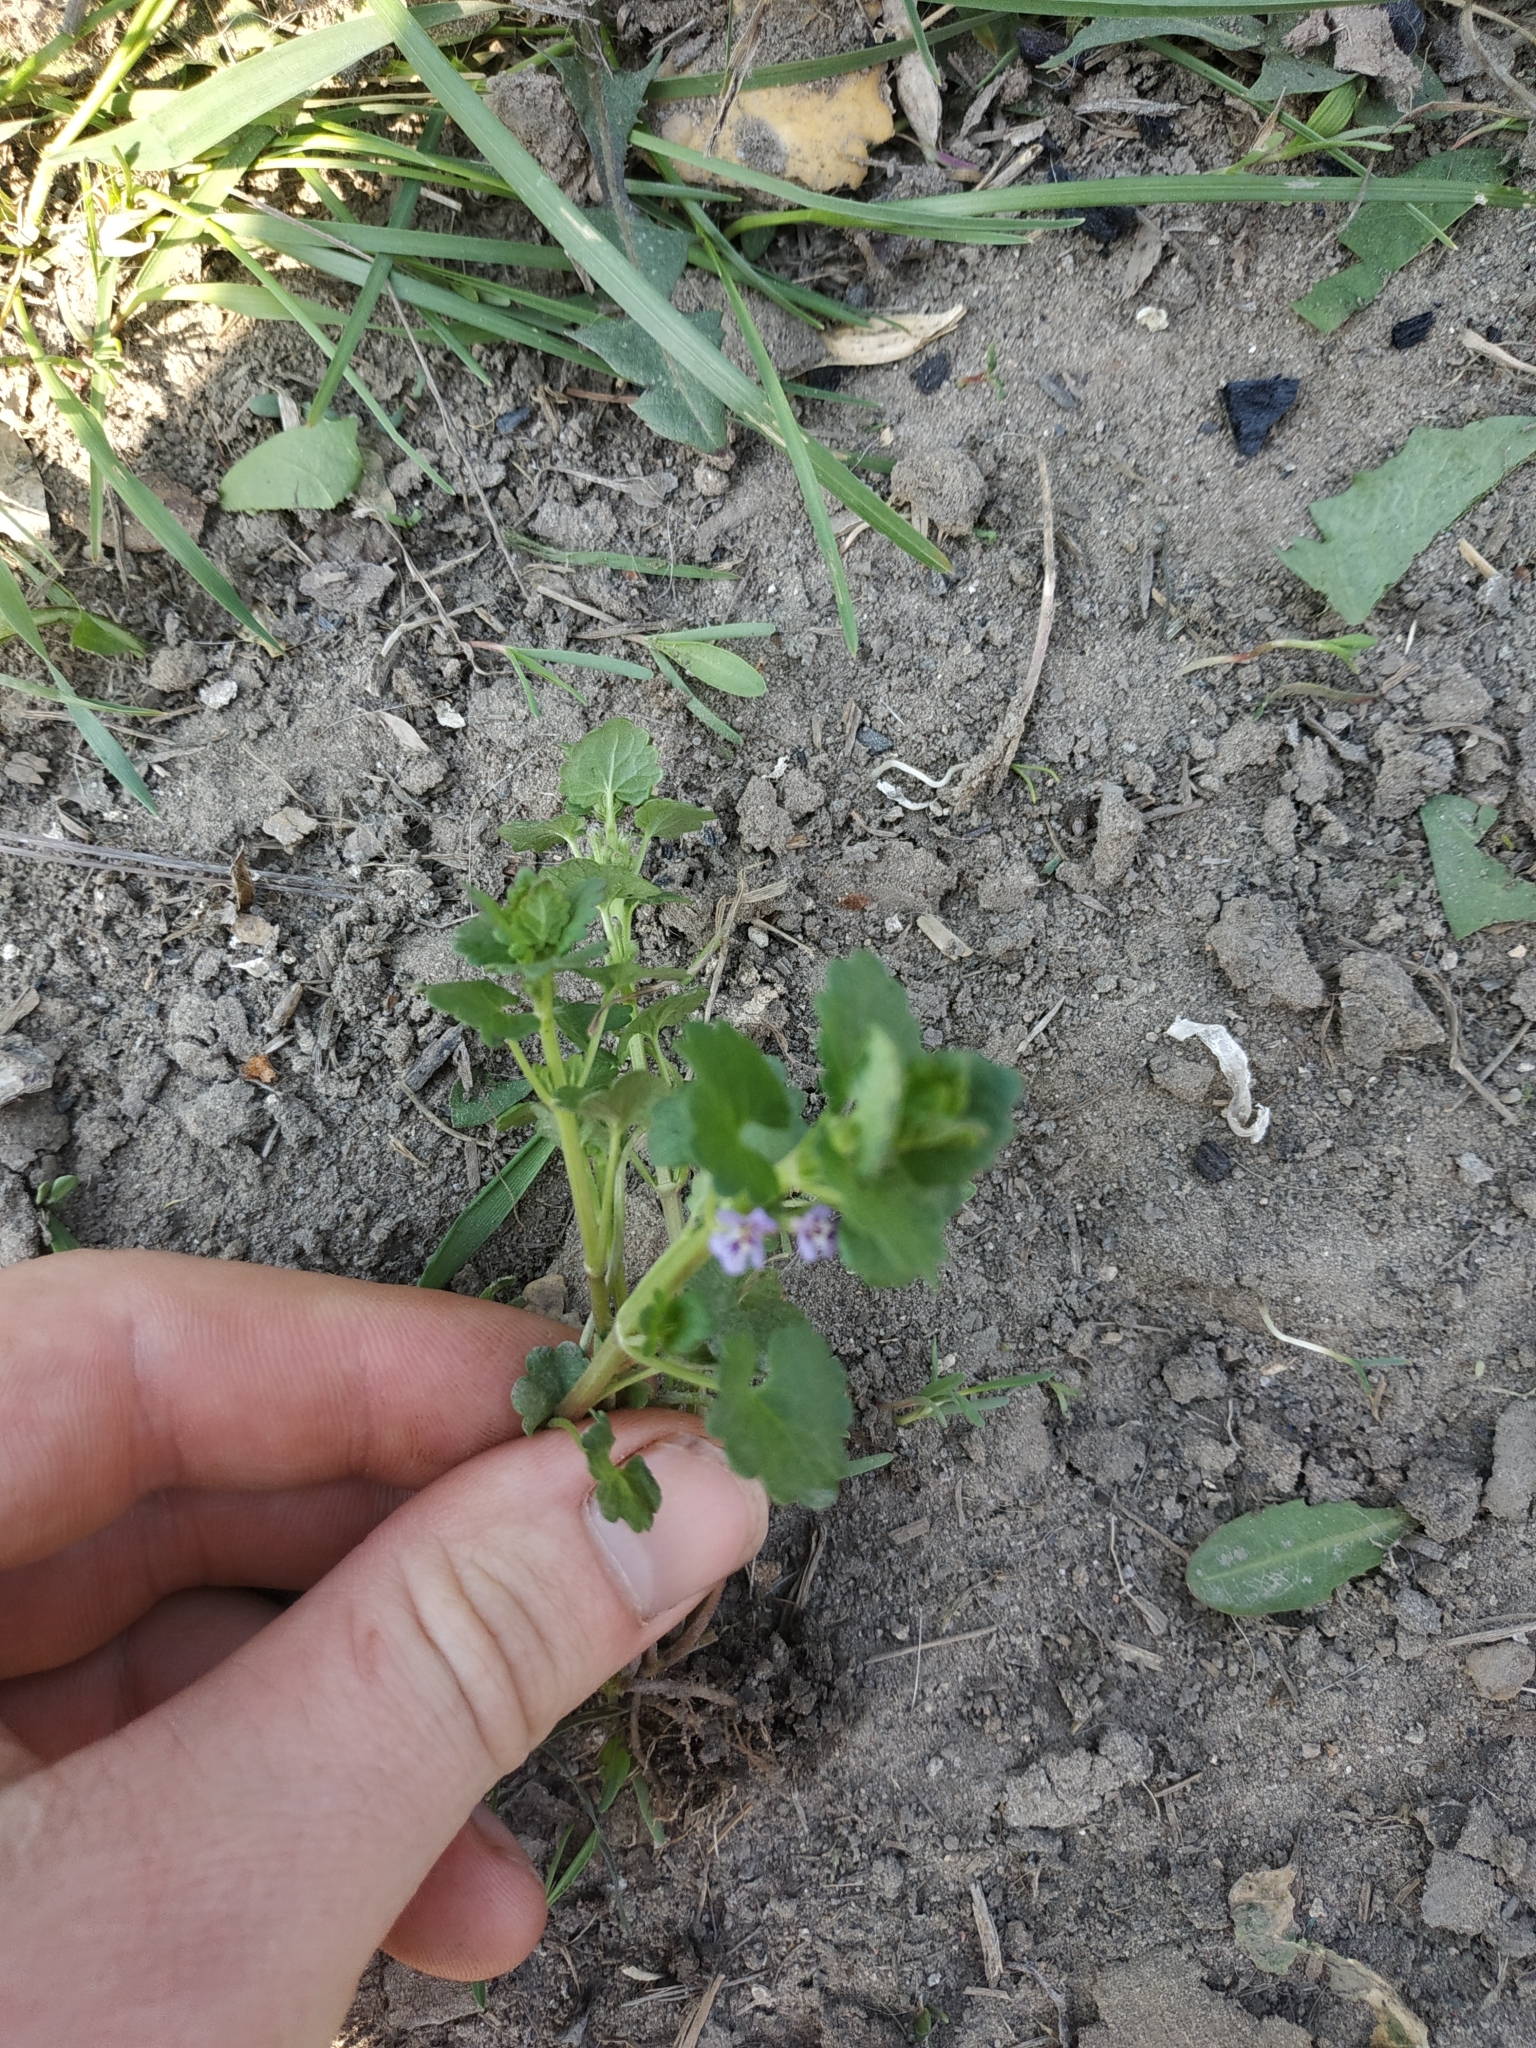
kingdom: Plantae
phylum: Tracheophyta
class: Magnoliopsida
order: Lamiales
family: Lamiaceae
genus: Glechoma
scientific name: Glechoma hederacea
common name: Ground ivy
